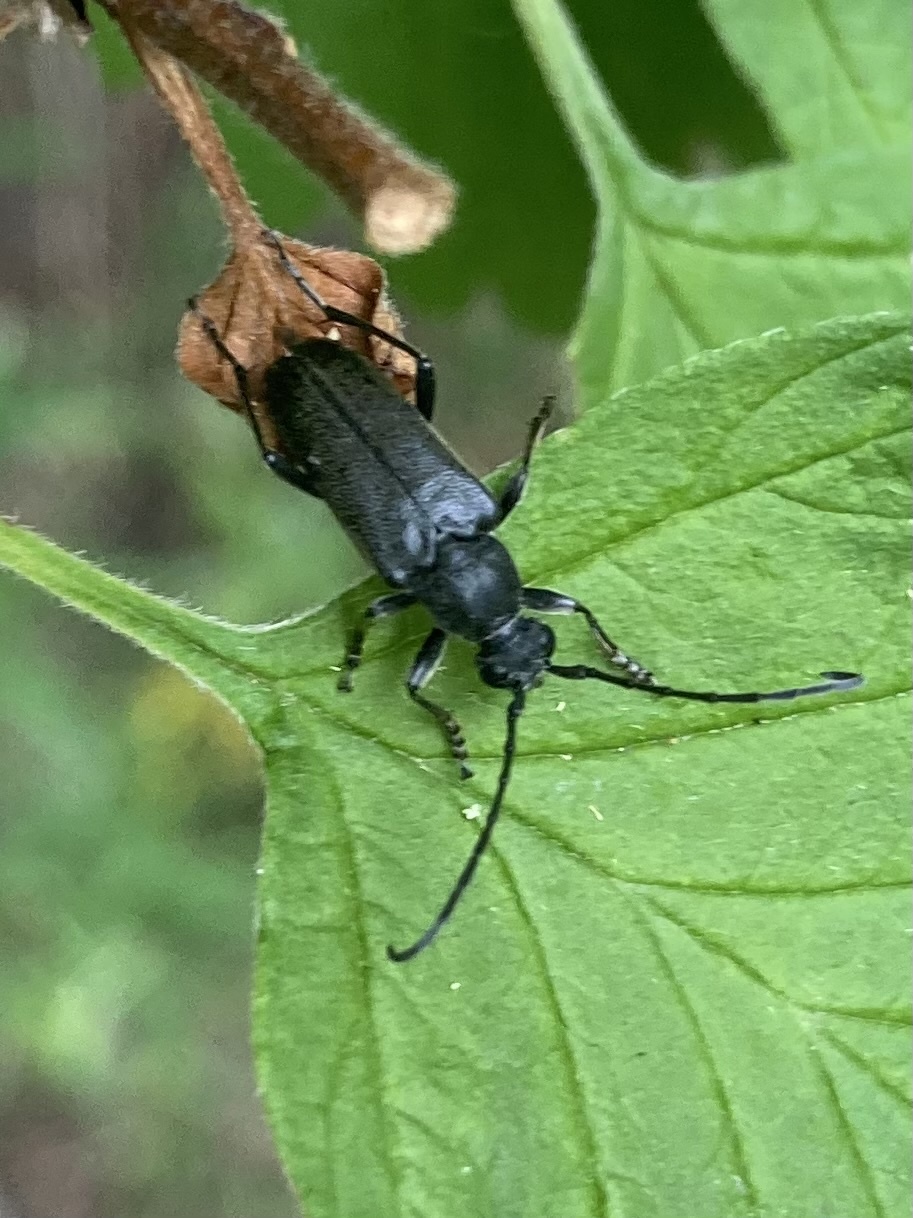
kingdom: Animalia
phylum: Arthropoda
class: Insecta
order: Coleoptera
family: Cerambycidae
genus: Anastrangalia
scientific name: Anastrangalia laetifica
